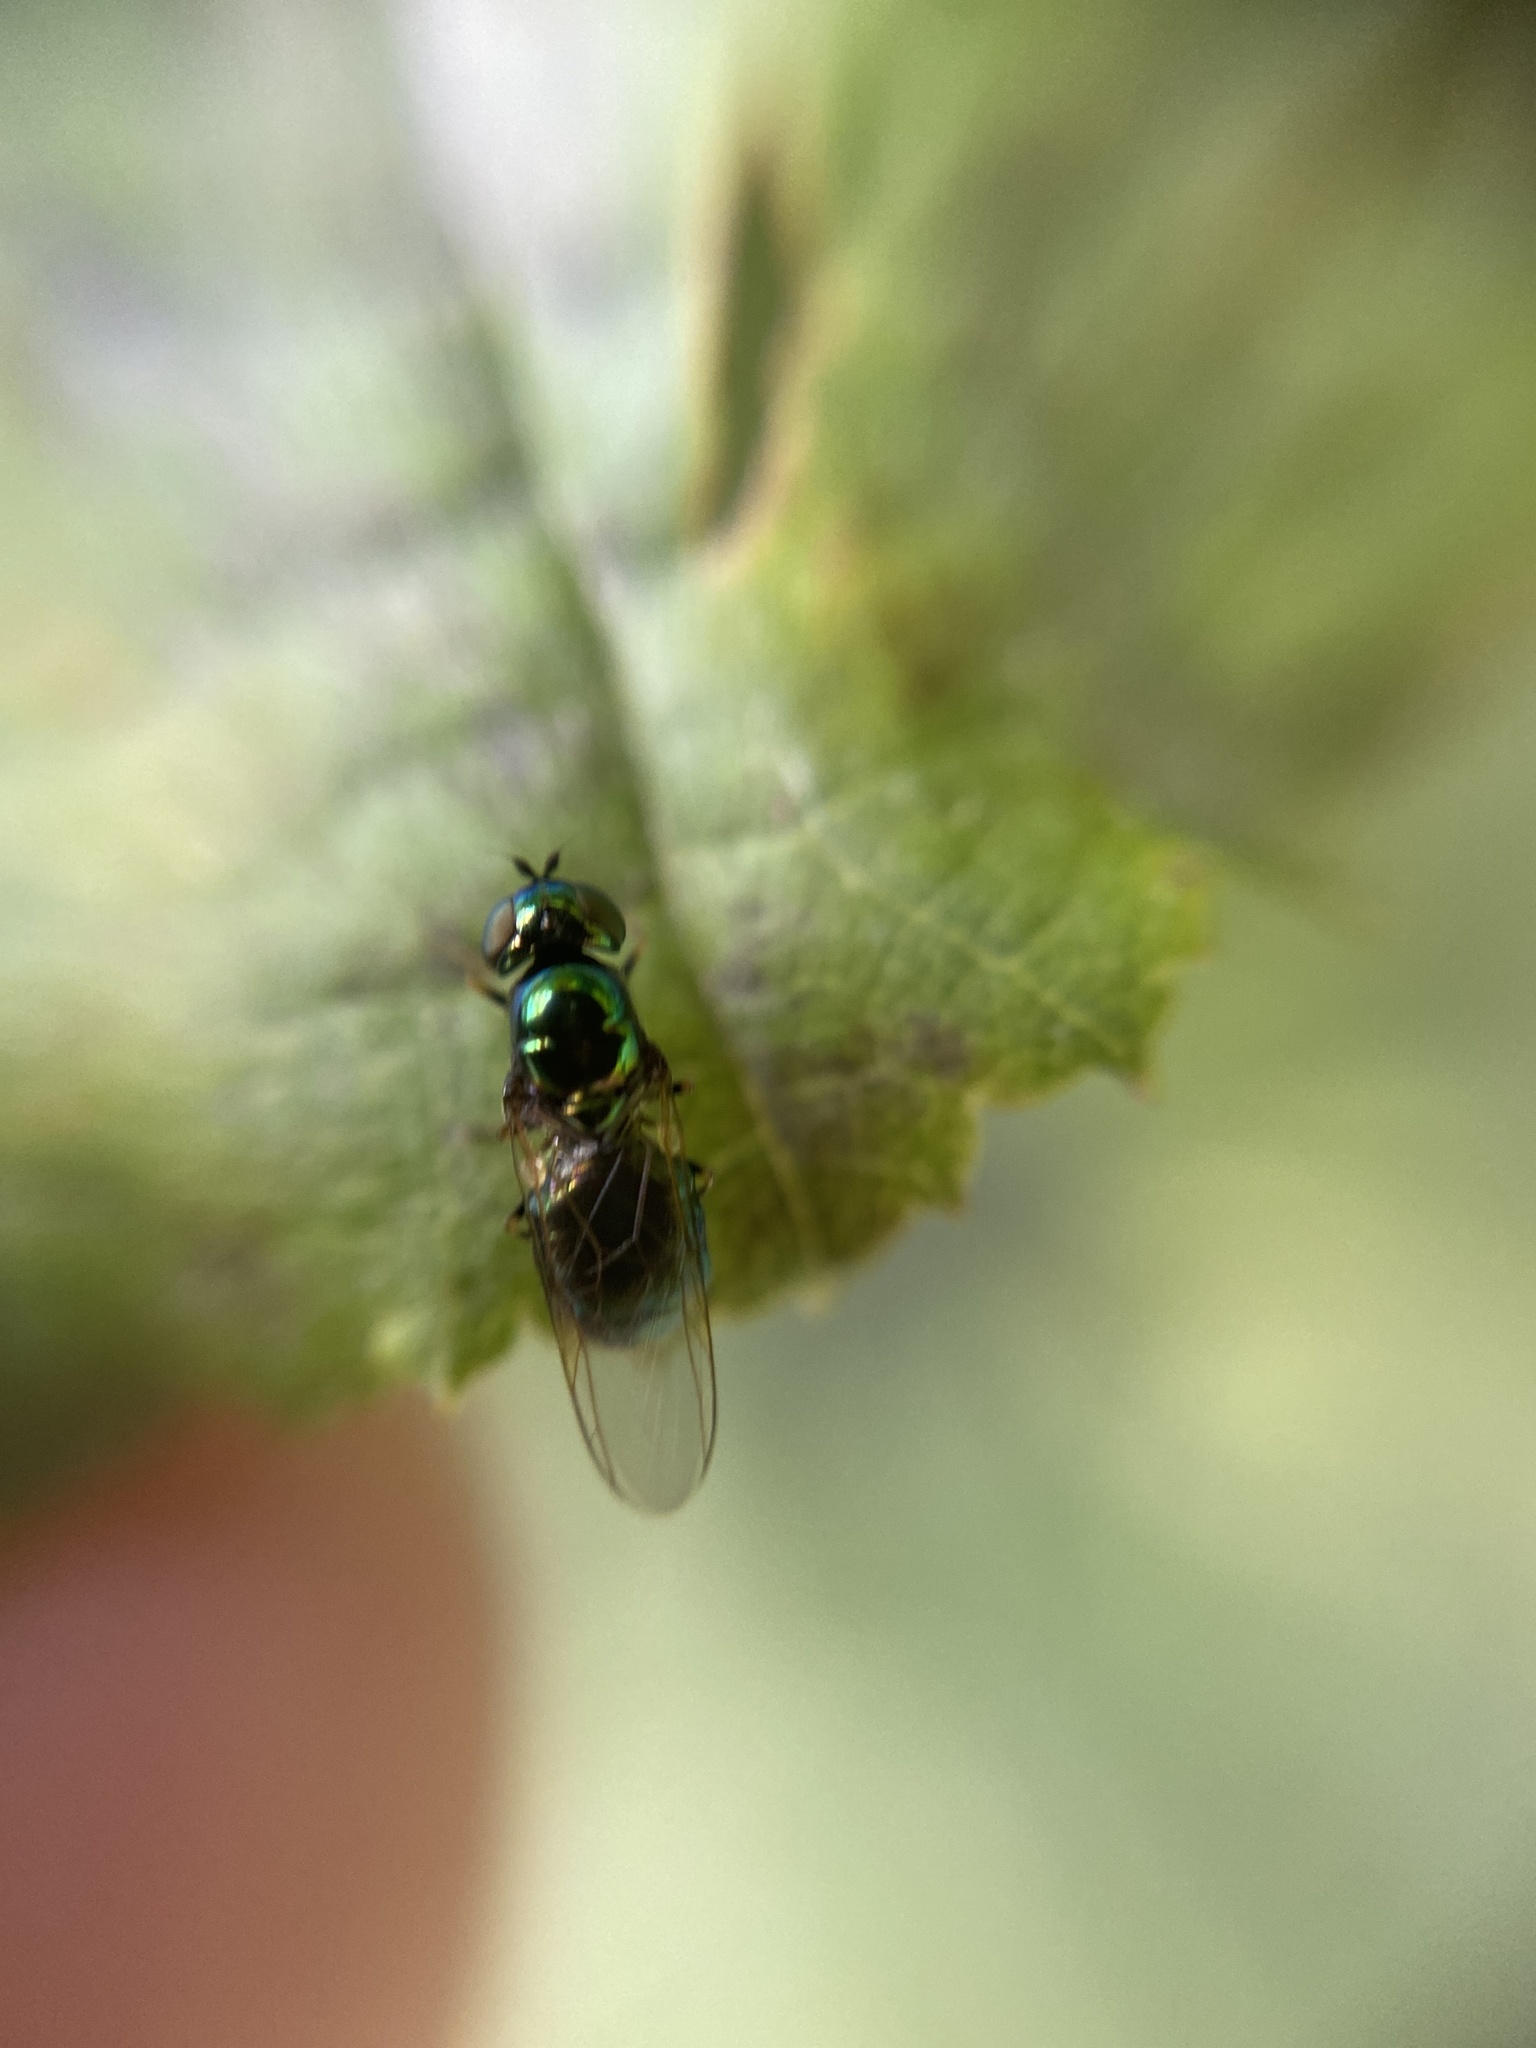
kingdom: Animalia
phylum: Arthropoda
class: Insecta
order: Diptera
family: Stratiomyidae
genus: Microchrysa
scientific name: Microchrysa polita
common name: Black-horned gem
